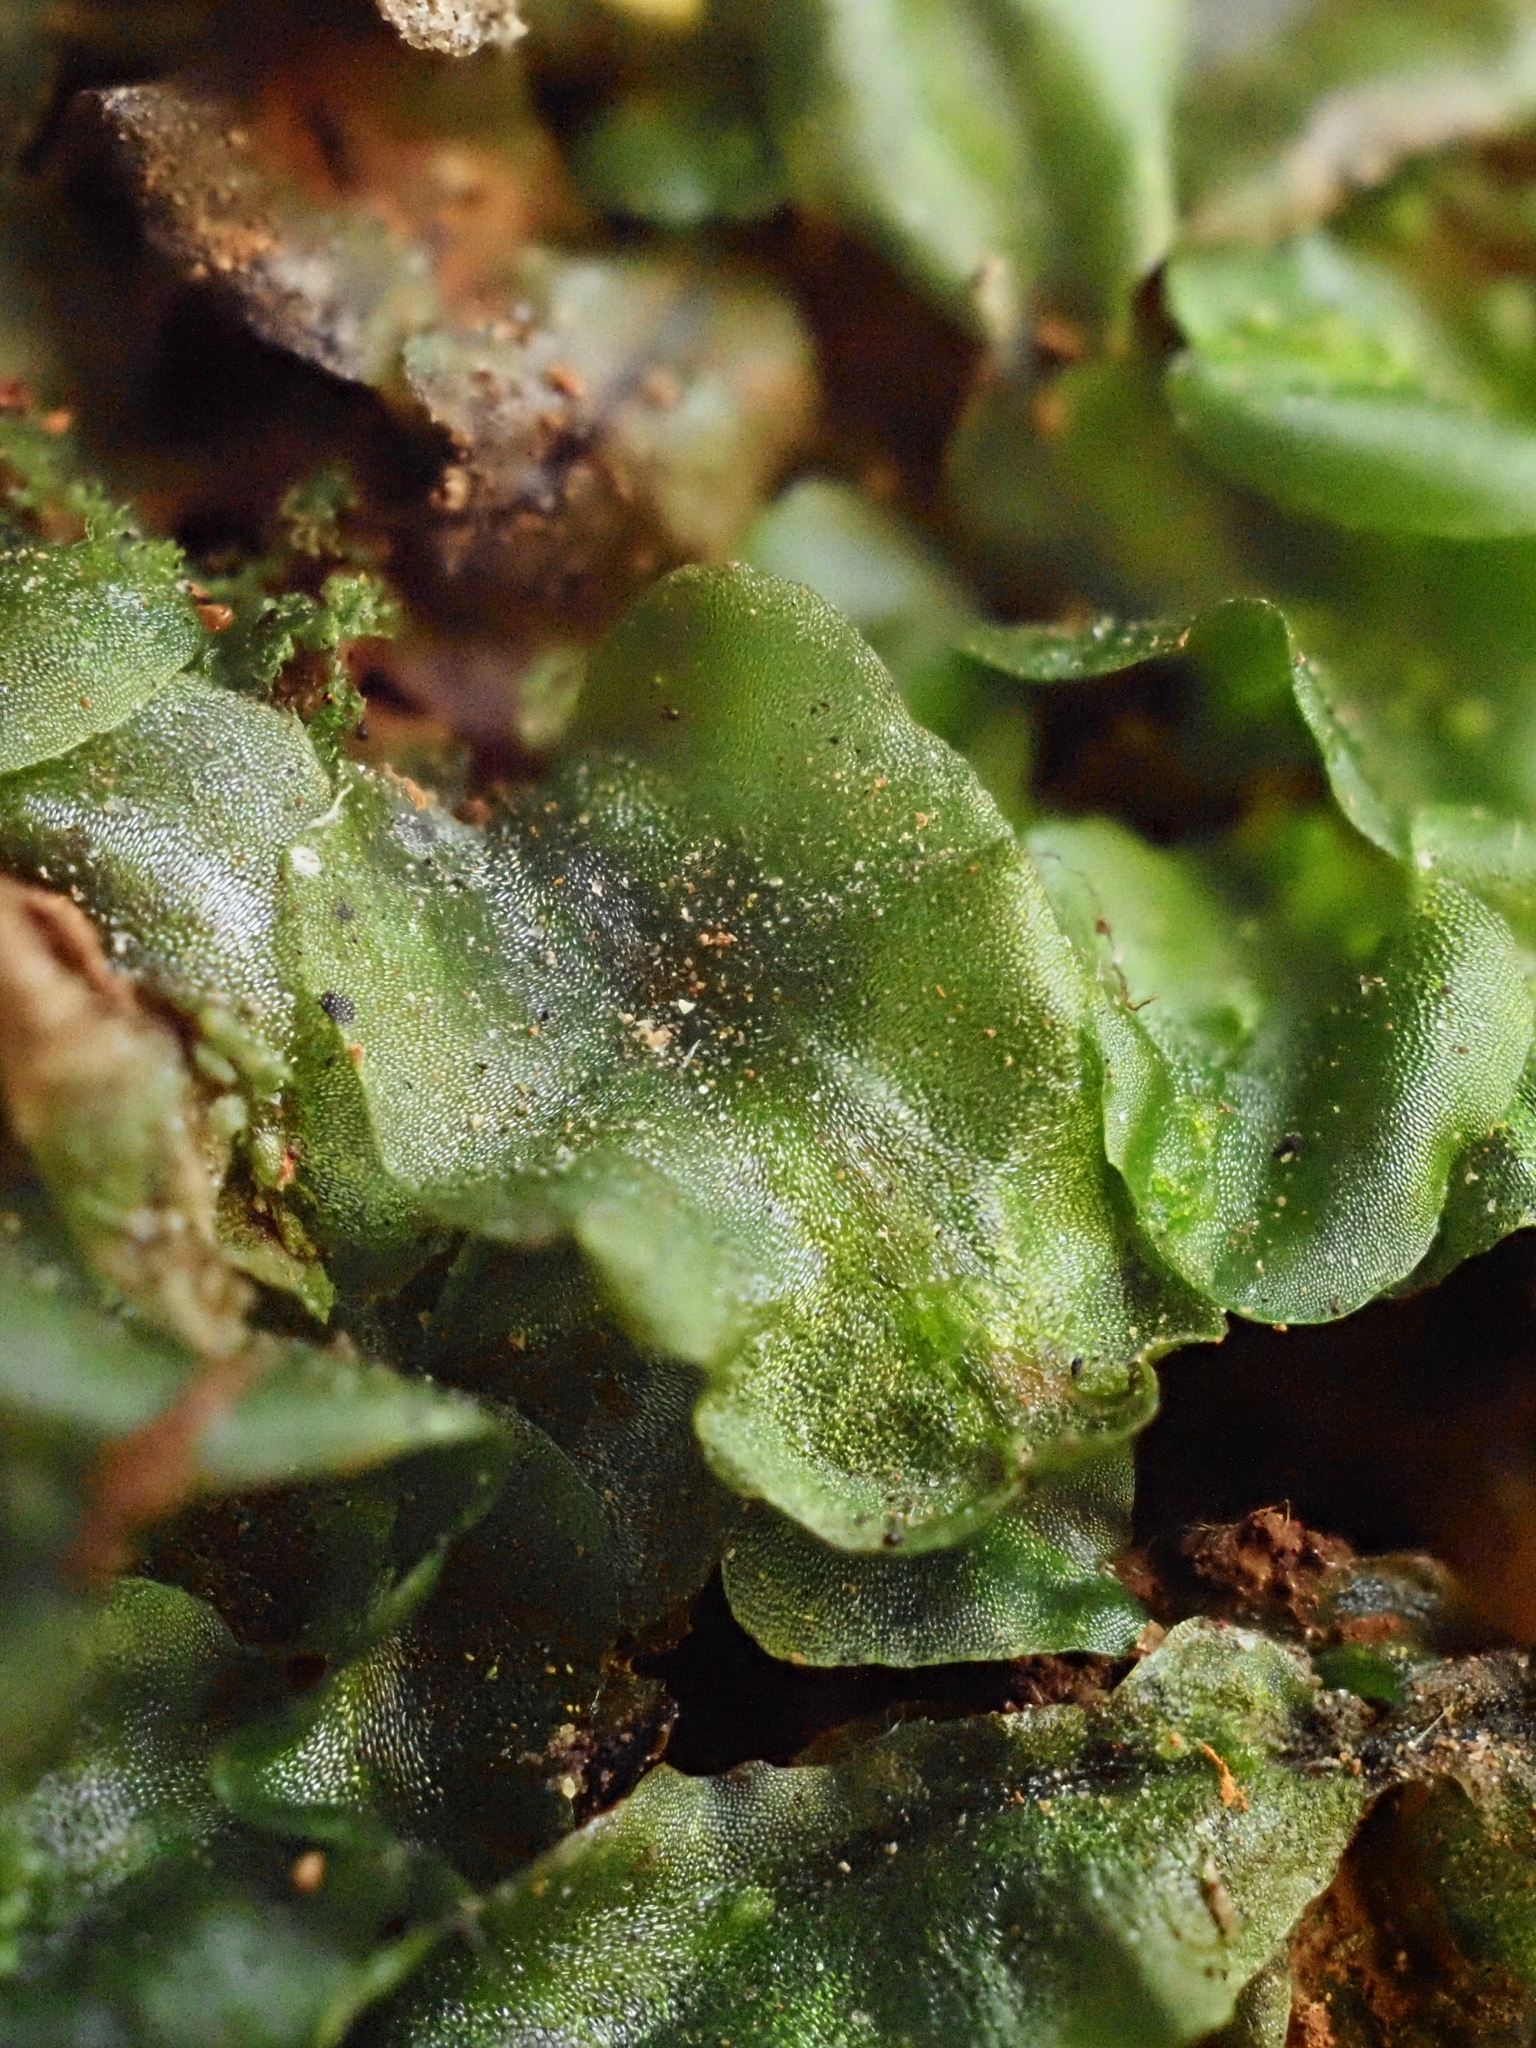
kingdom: Plantae
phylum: Marchantiophyta
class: Jungermanniopsida
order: Pallaviciniales
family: Pallaviciniaceae
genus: Pallavicinia
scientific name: Pallavicinia lyellii
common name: Veilwort
